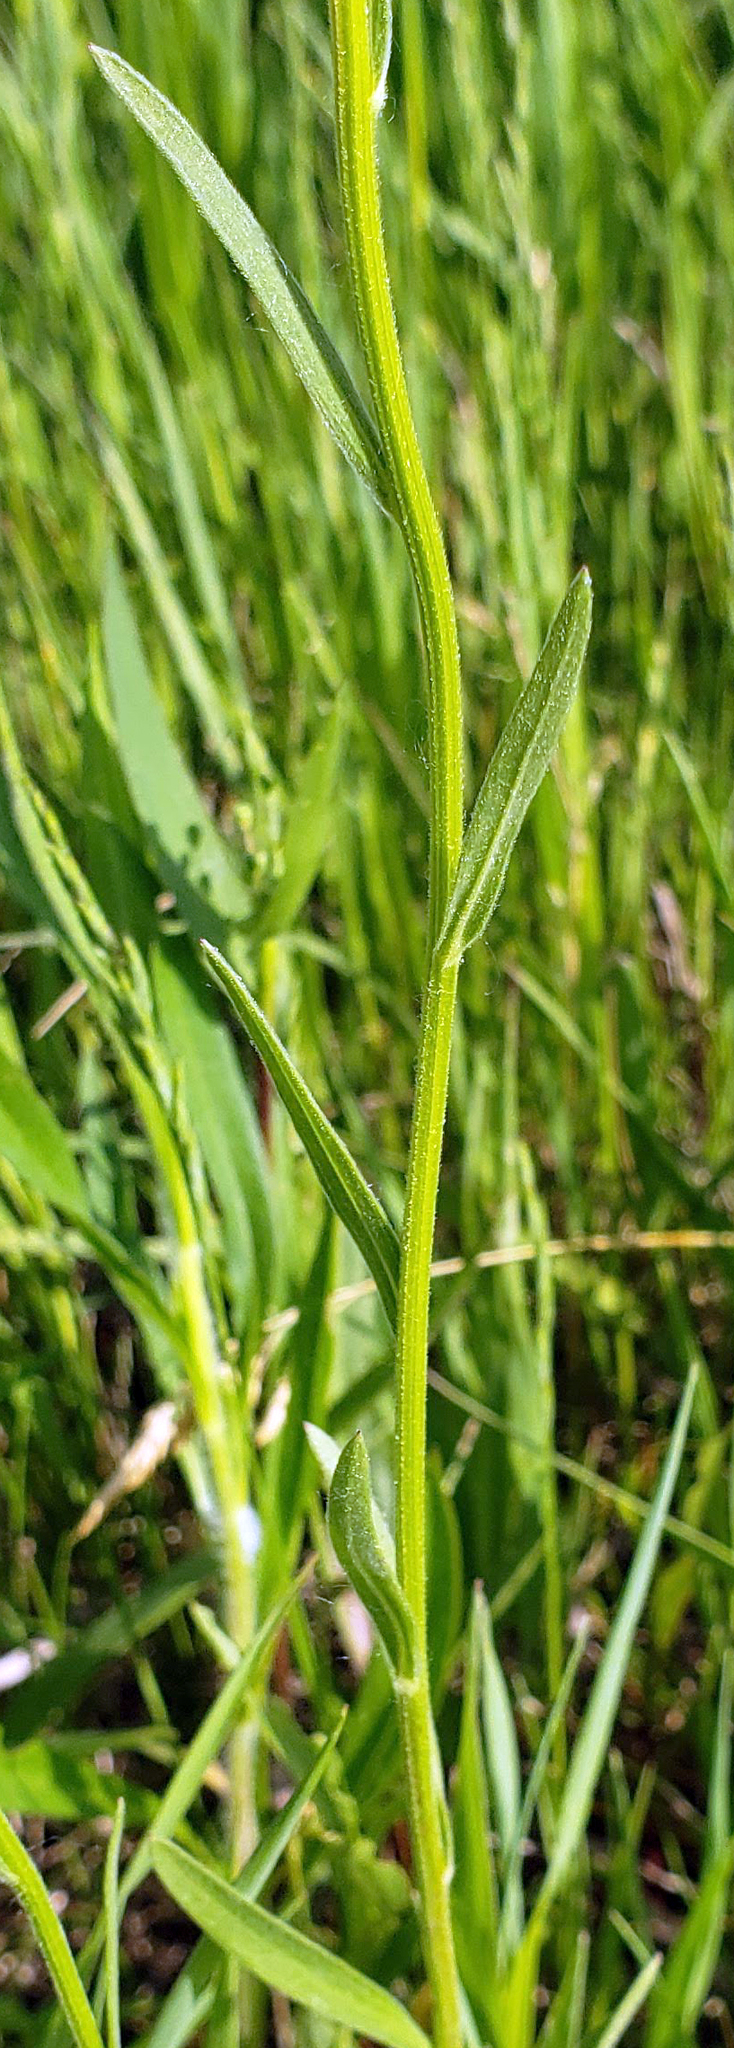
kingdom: Plantae
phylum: Tracheophyta
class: Magnoliopsida
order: Asterales
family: Asteraceae
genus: Erigeron
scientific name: Erigeron strigosus
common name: Common eastern fleabane
